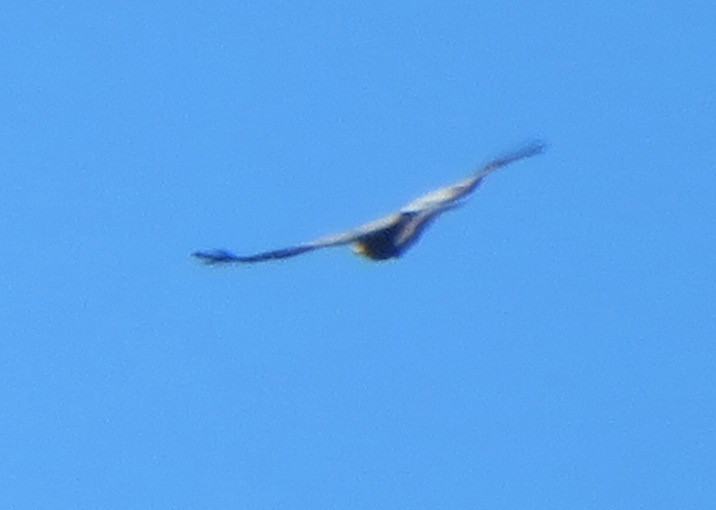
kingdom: Animalia
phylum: Chordata
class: Aves
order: Accipitriformes
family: Accipitridae
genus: Polyboroides
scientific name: Polyboroides typus
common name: African harrier-hawk
